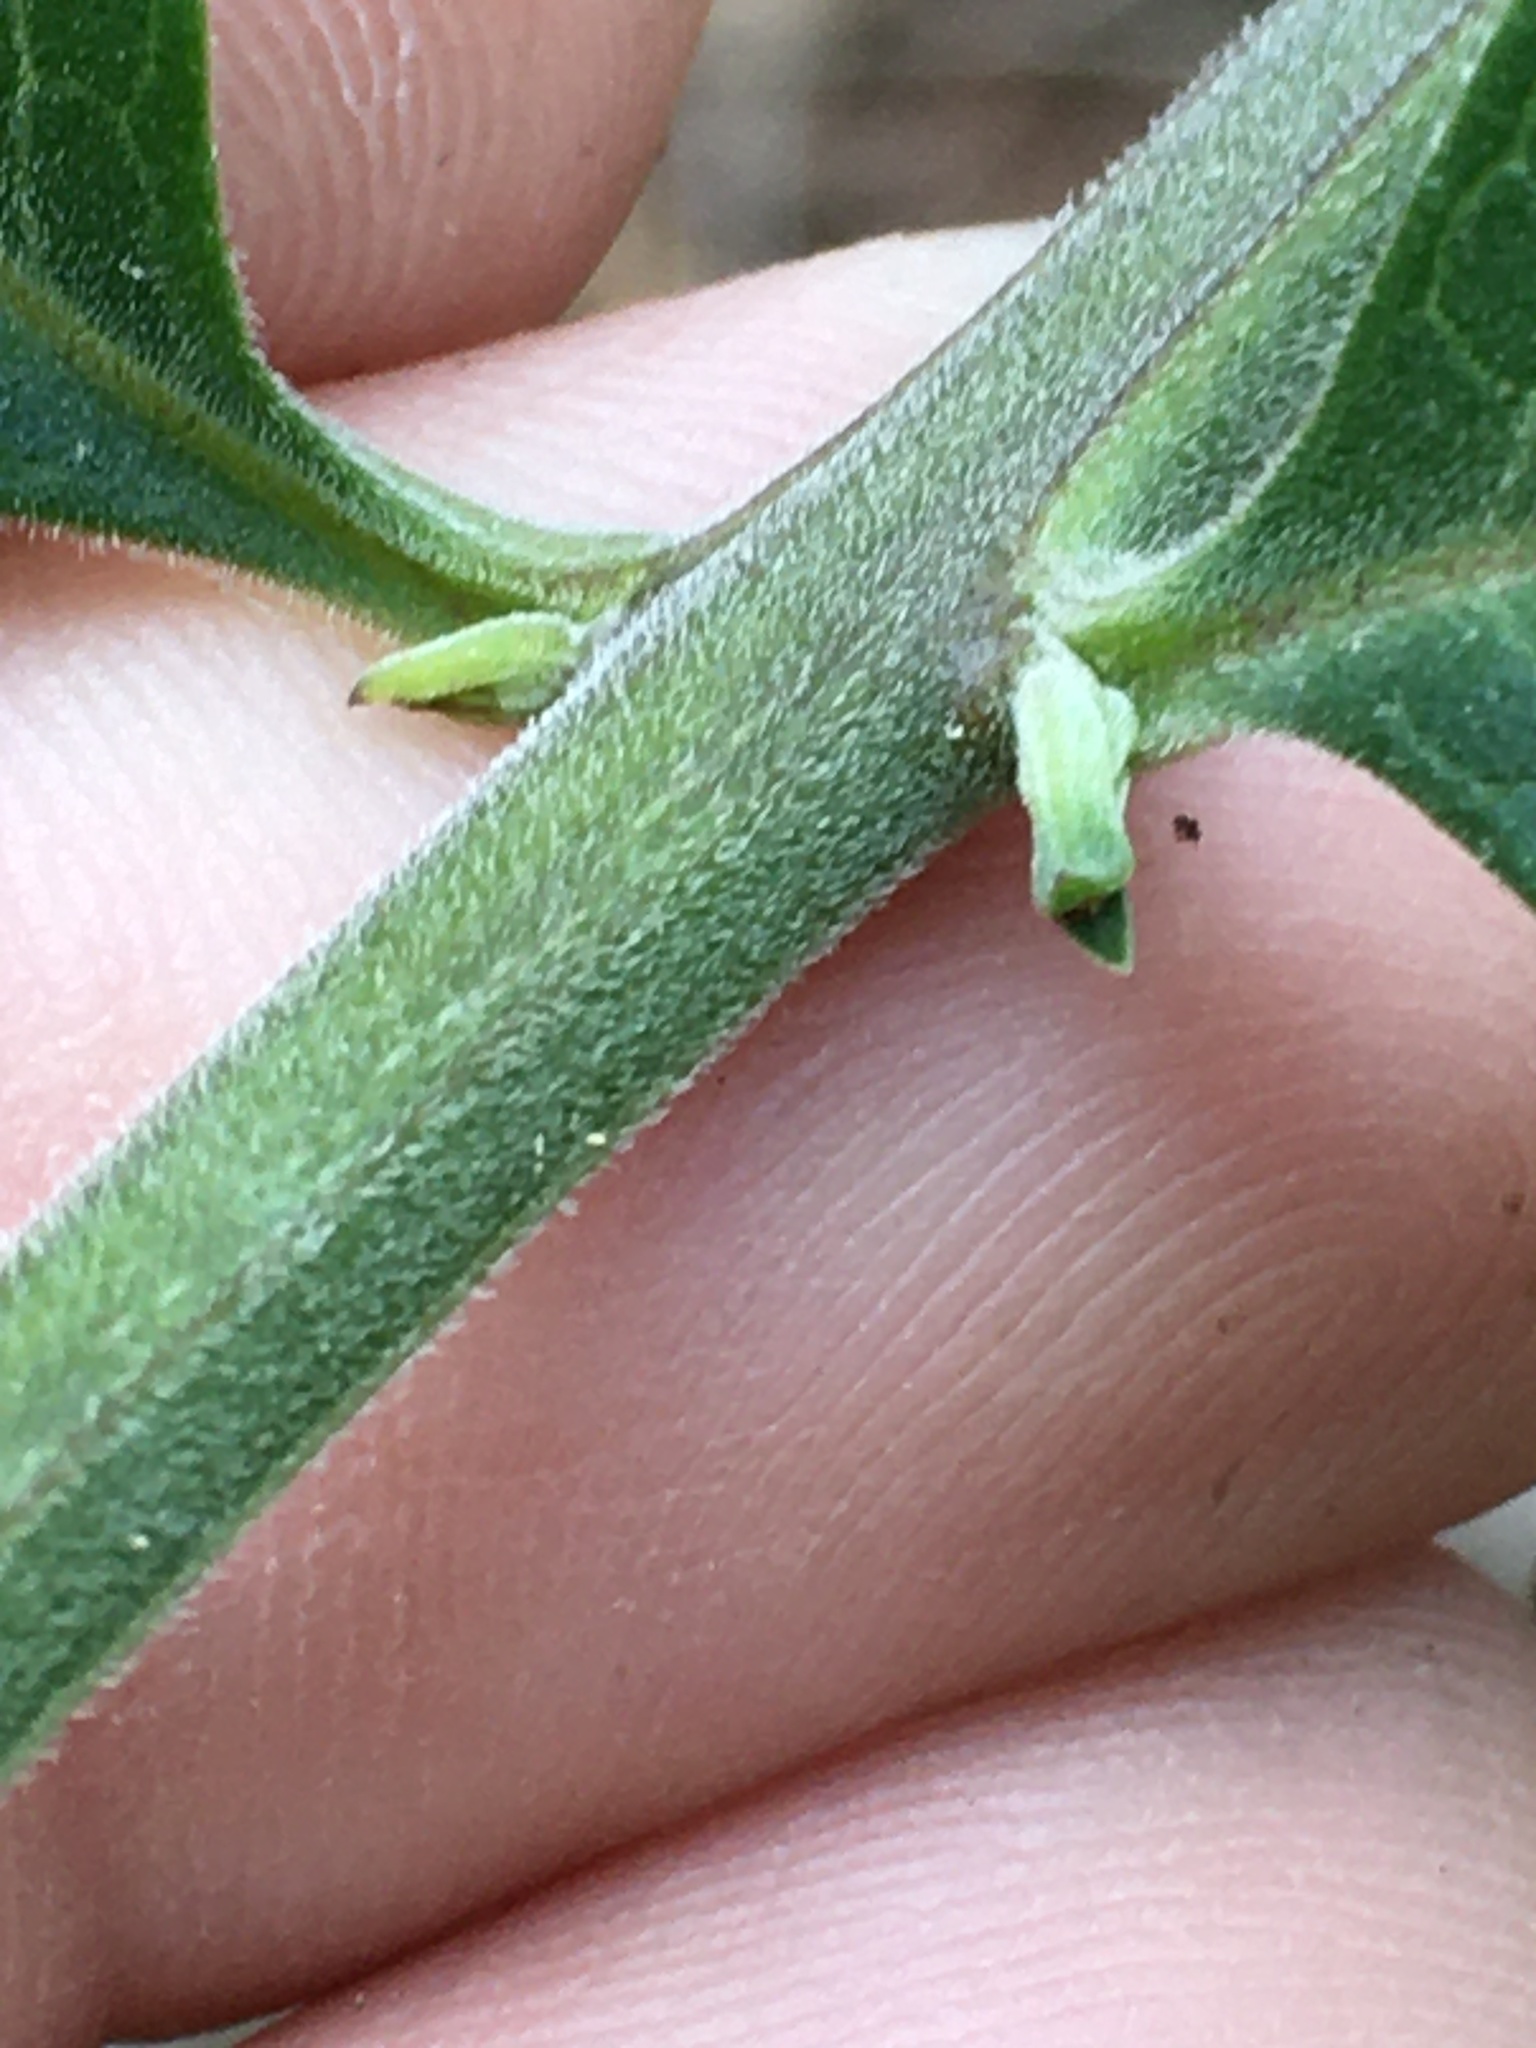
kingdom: Plantae
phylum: Tracheophyta
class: Magnoliopsida
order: Lamiales
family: Orobanchaceae
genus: Aureolaria
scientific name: Aureolaria virginica
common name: Downy false foxglove
